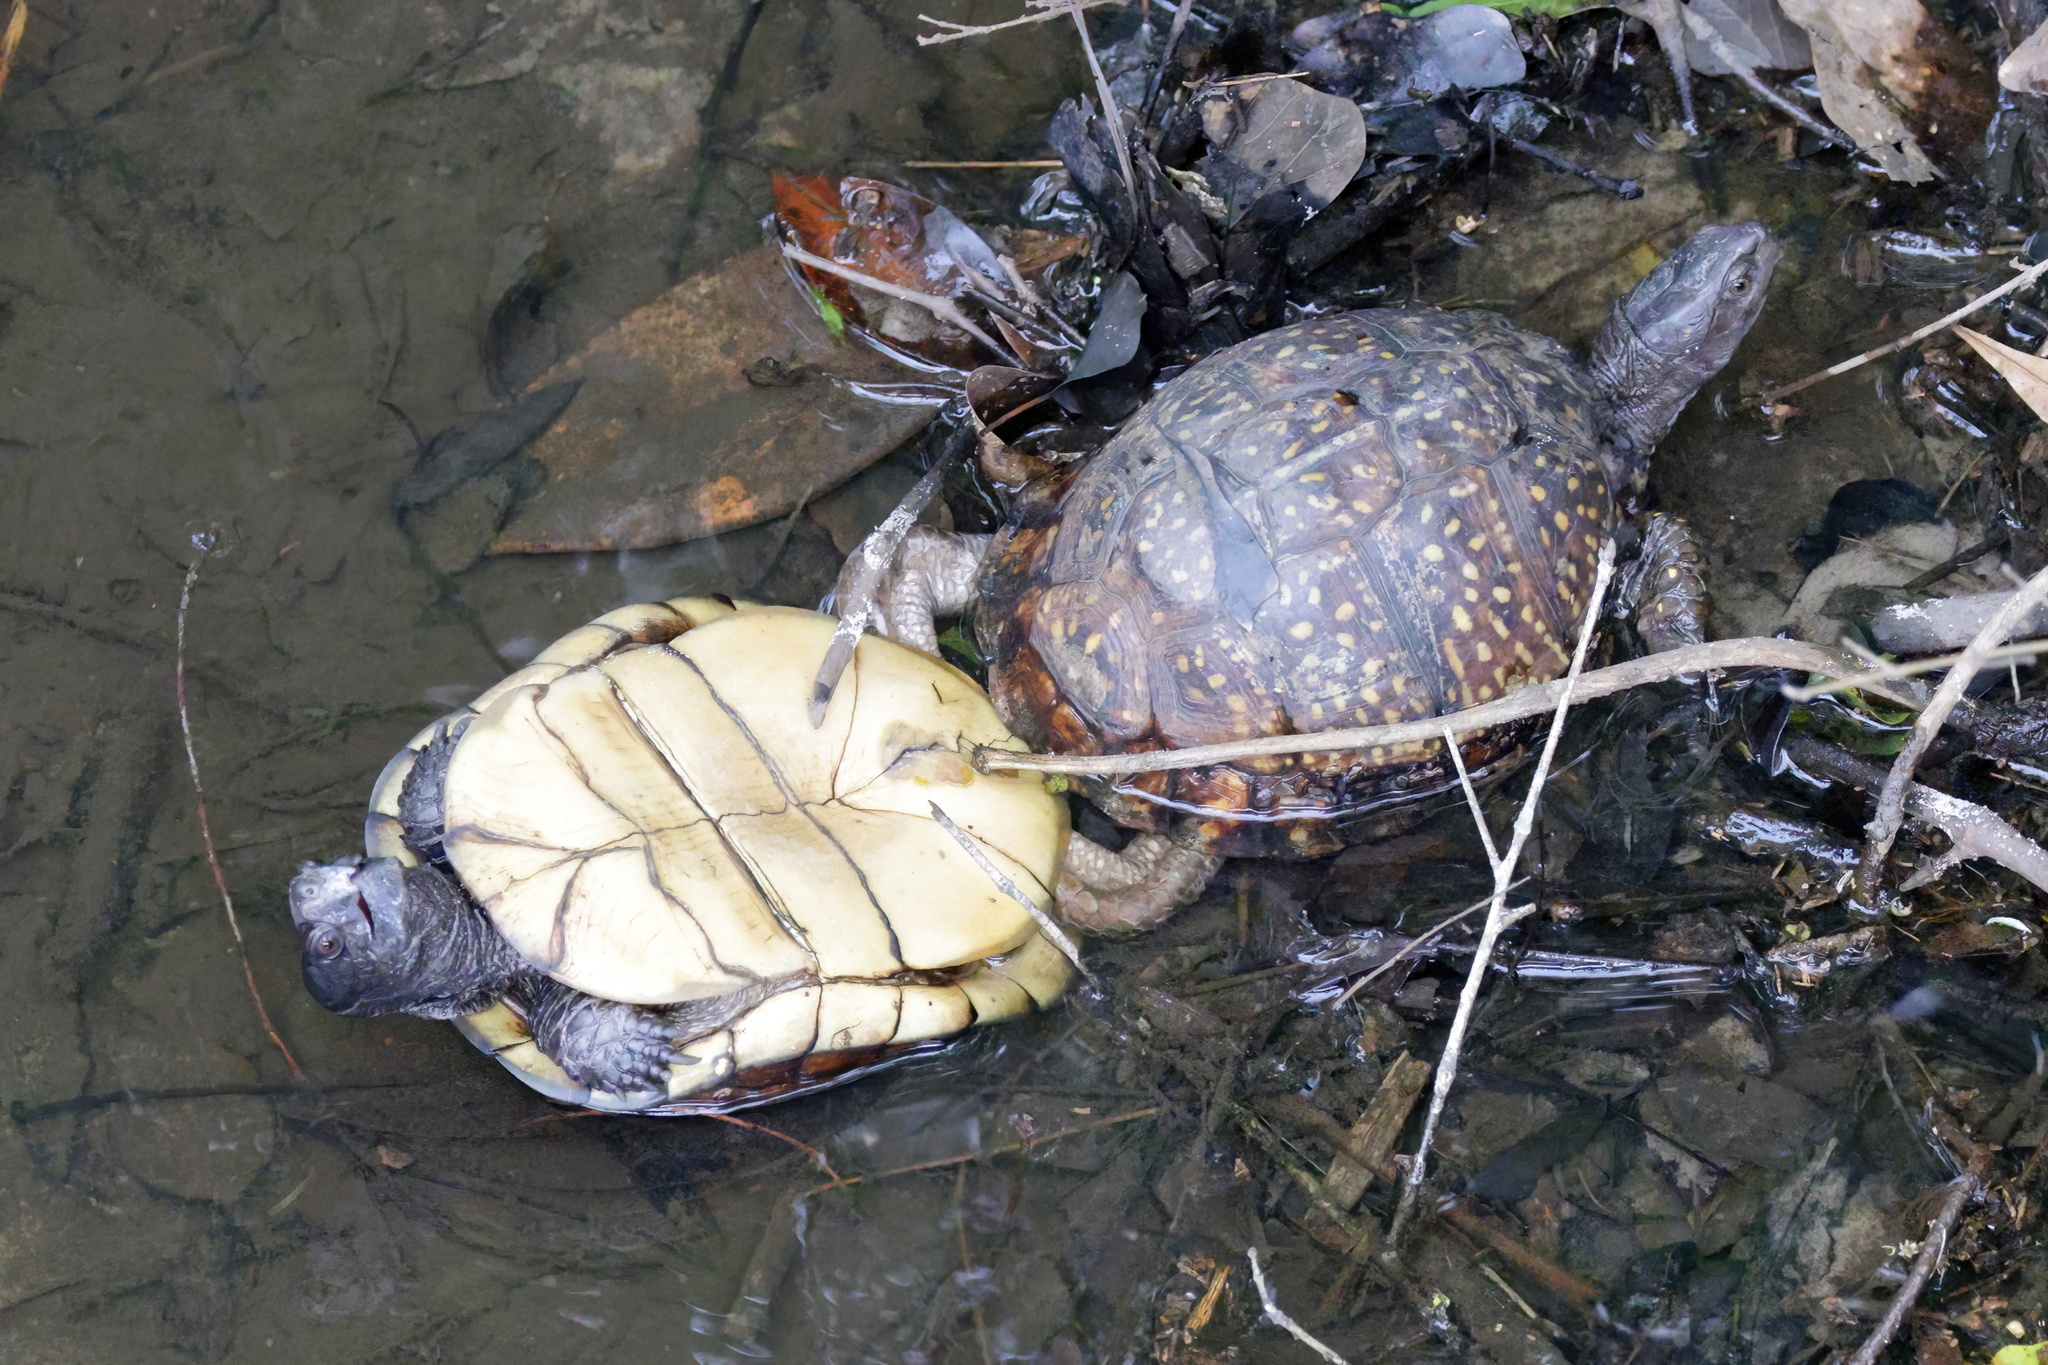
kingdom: Animalia
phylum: Chordata
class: Testudines
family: Emydidae
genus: Terrapene
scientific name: Terrapene carolina
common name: Common box turtle
